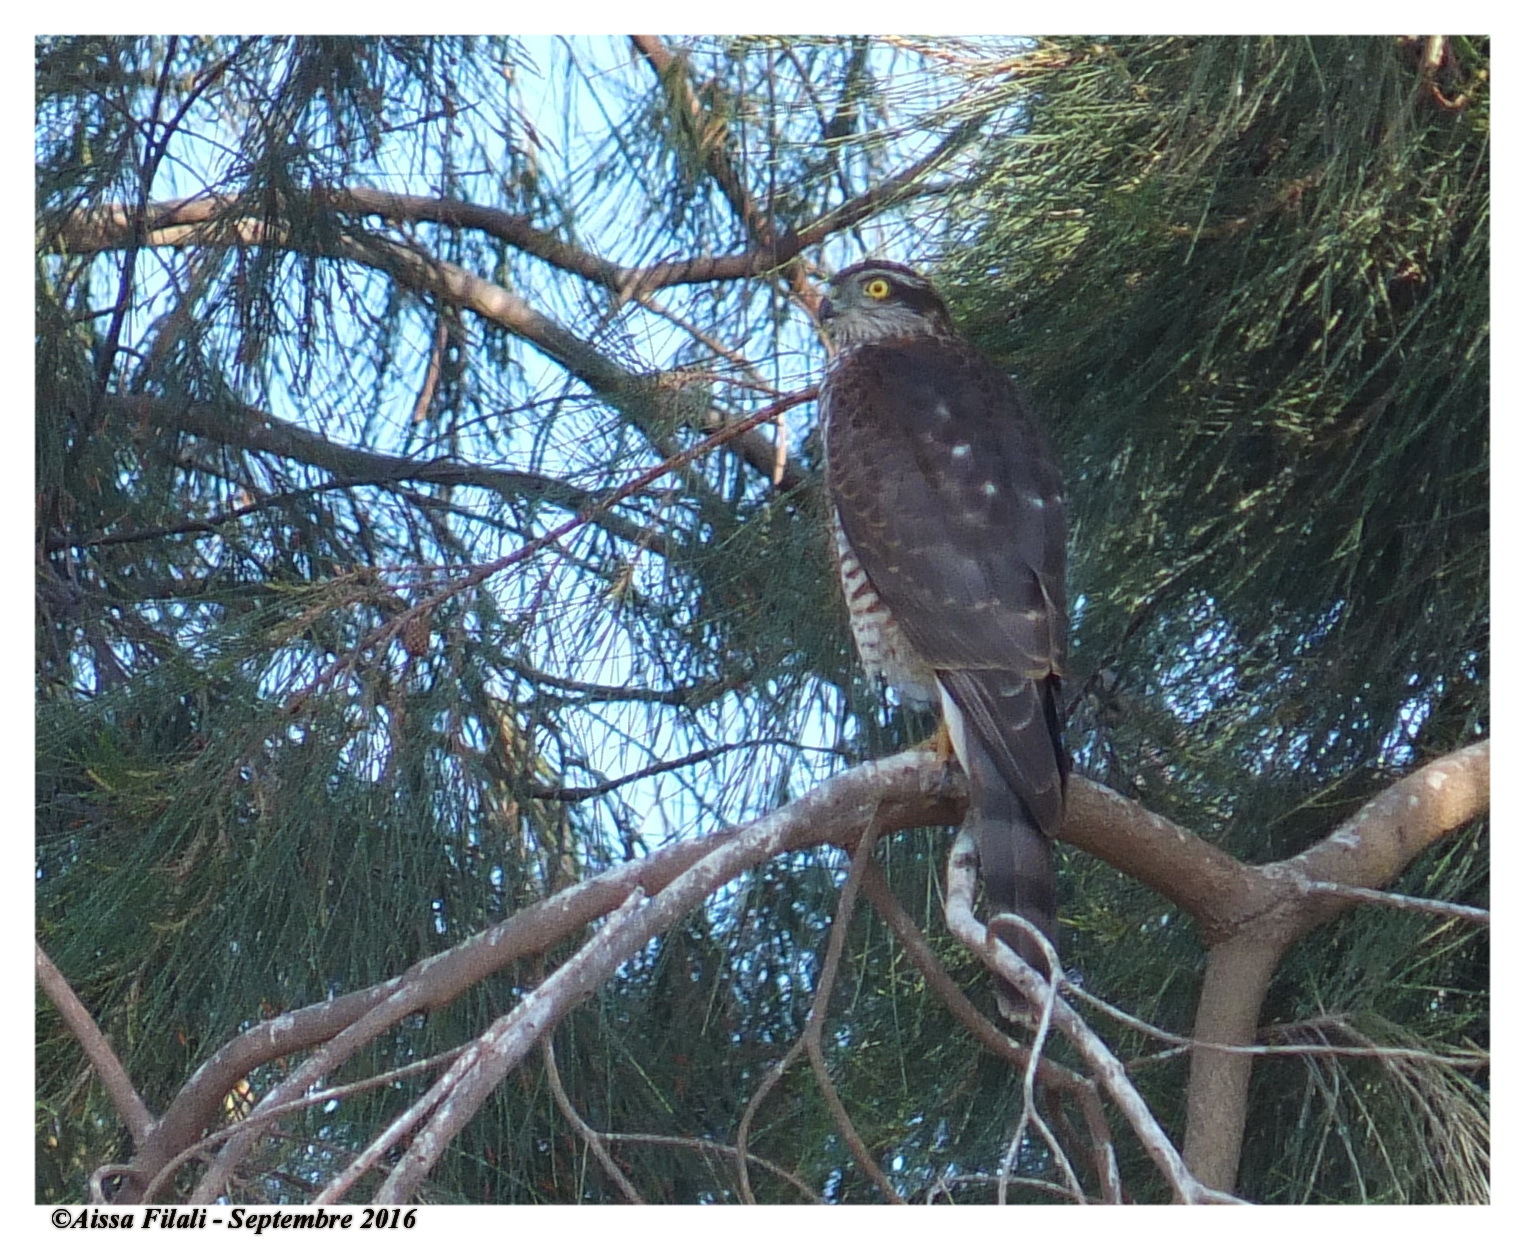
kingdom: Animalia
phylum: Chordata
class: Aves
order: Accipitriformes
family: Accipitridae
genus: Accipiter
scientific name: Accipiter nisus
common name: Eurasian sparrowhawk
